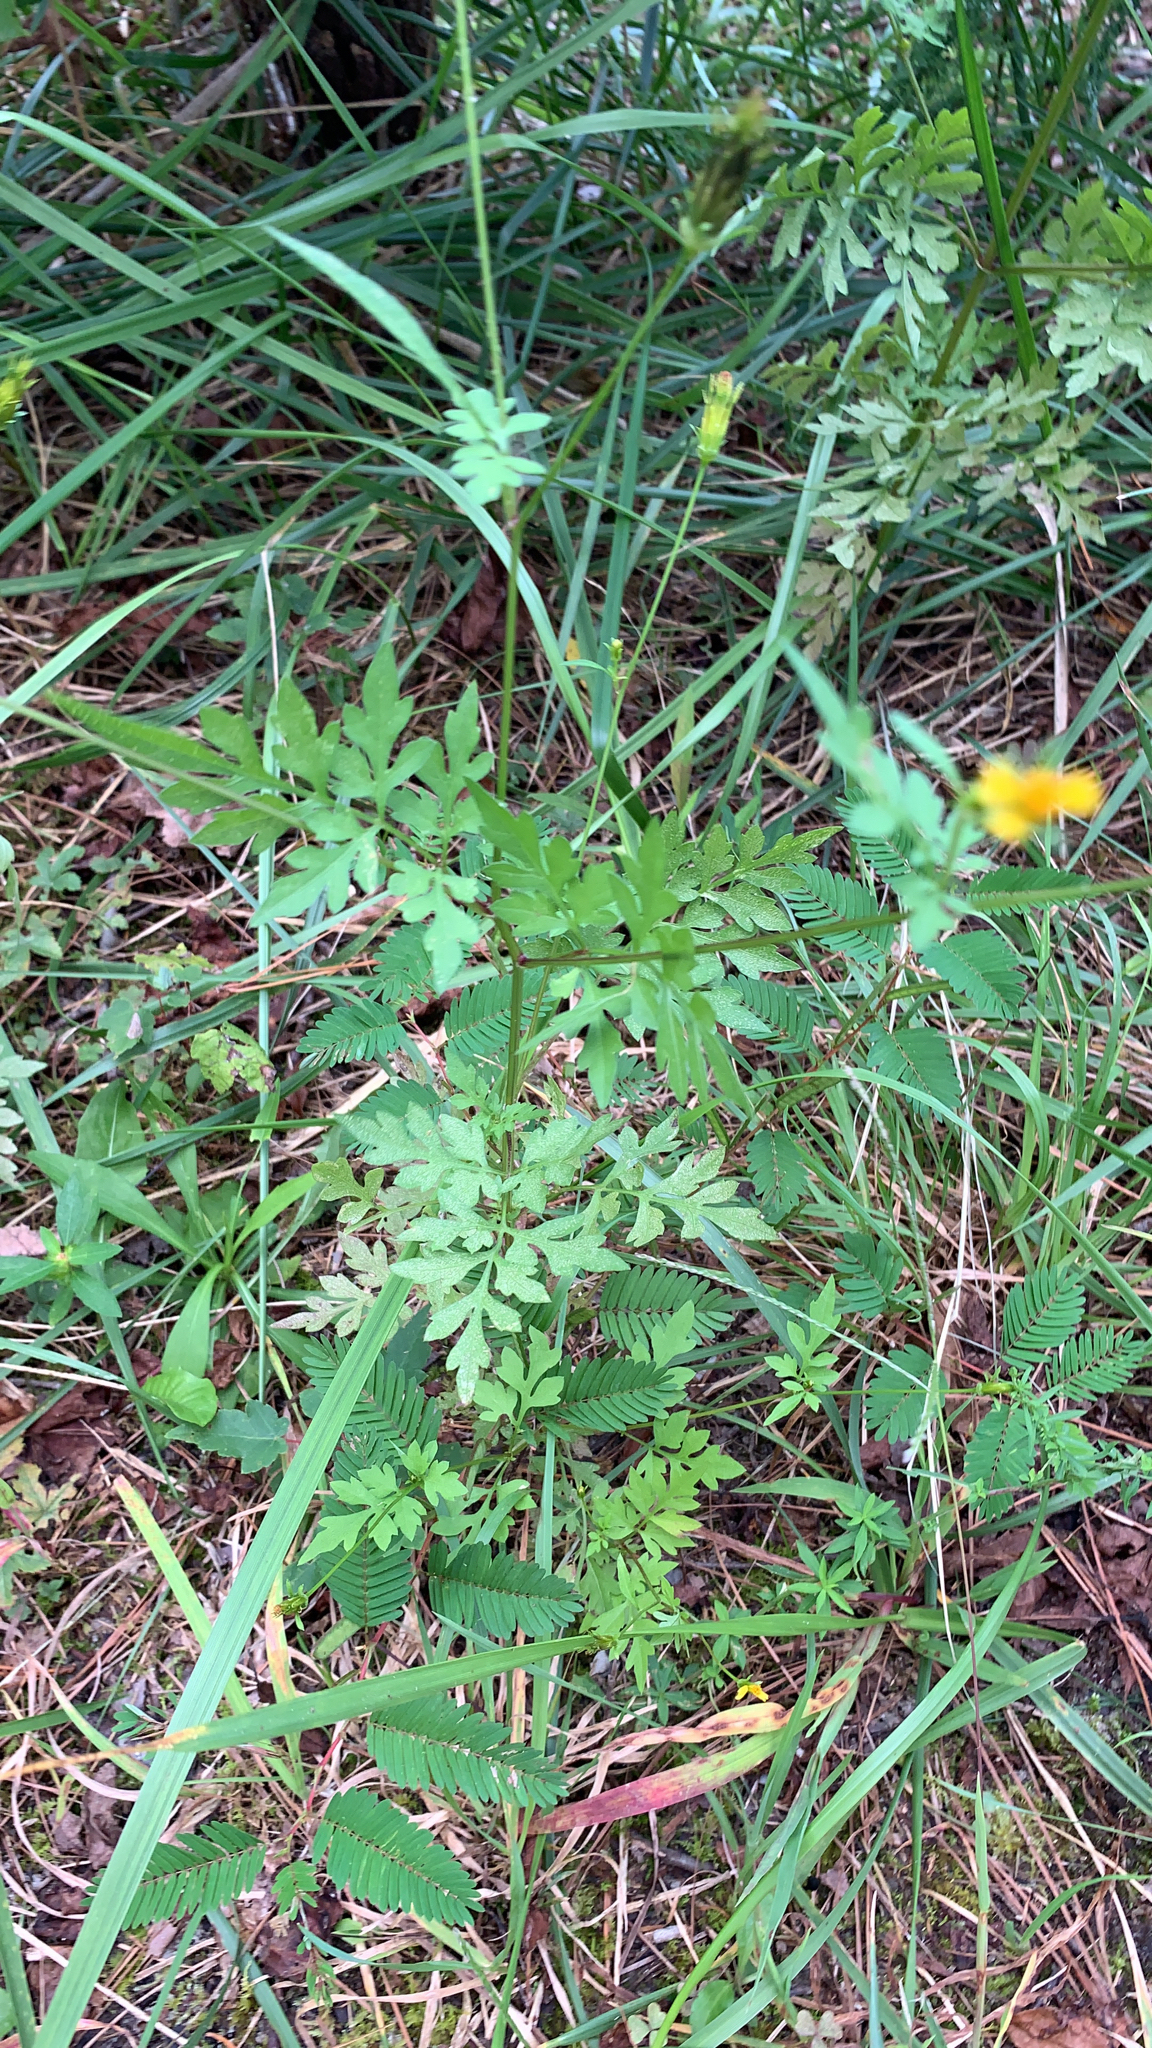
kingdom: Plantae
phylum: Tracheophyta
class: Magnoliopsida
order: Asterales
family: Asteraceae
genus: Bidens
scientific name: Bidens bipinnata
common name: Spanish-needles
